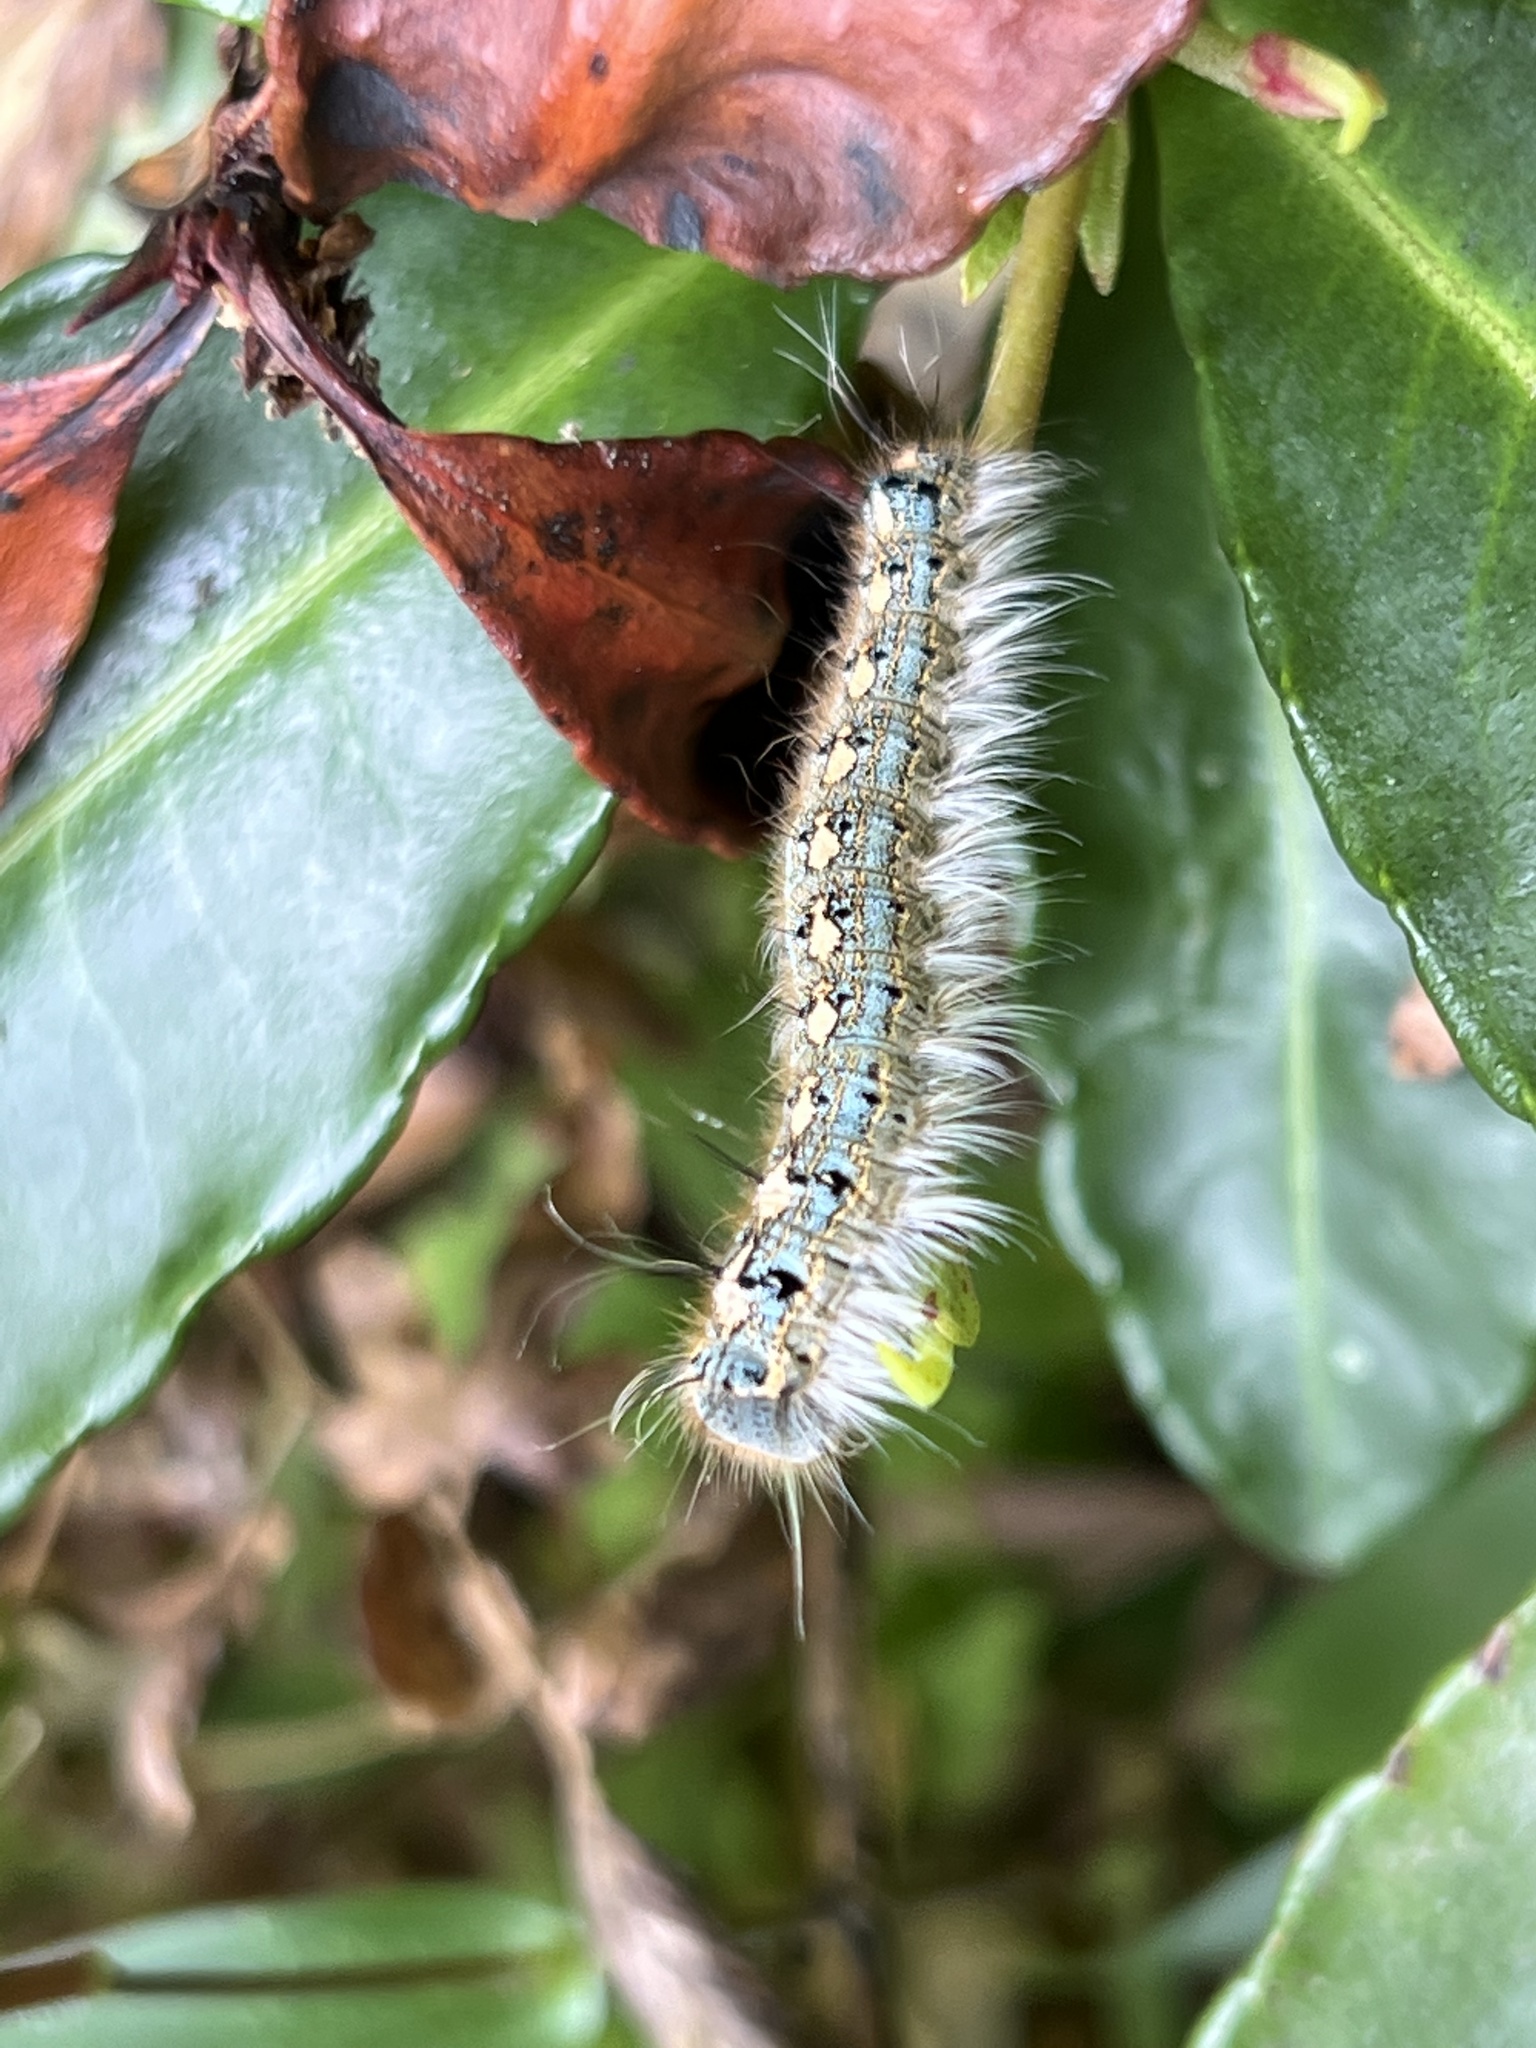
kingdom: Animalia
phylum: Arthropoda
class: Insecta
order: Lepidoptera
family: Lasiocampidae
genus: Malacosoma
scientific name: Malacosoma disstria
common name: Forest tent caterpillar
